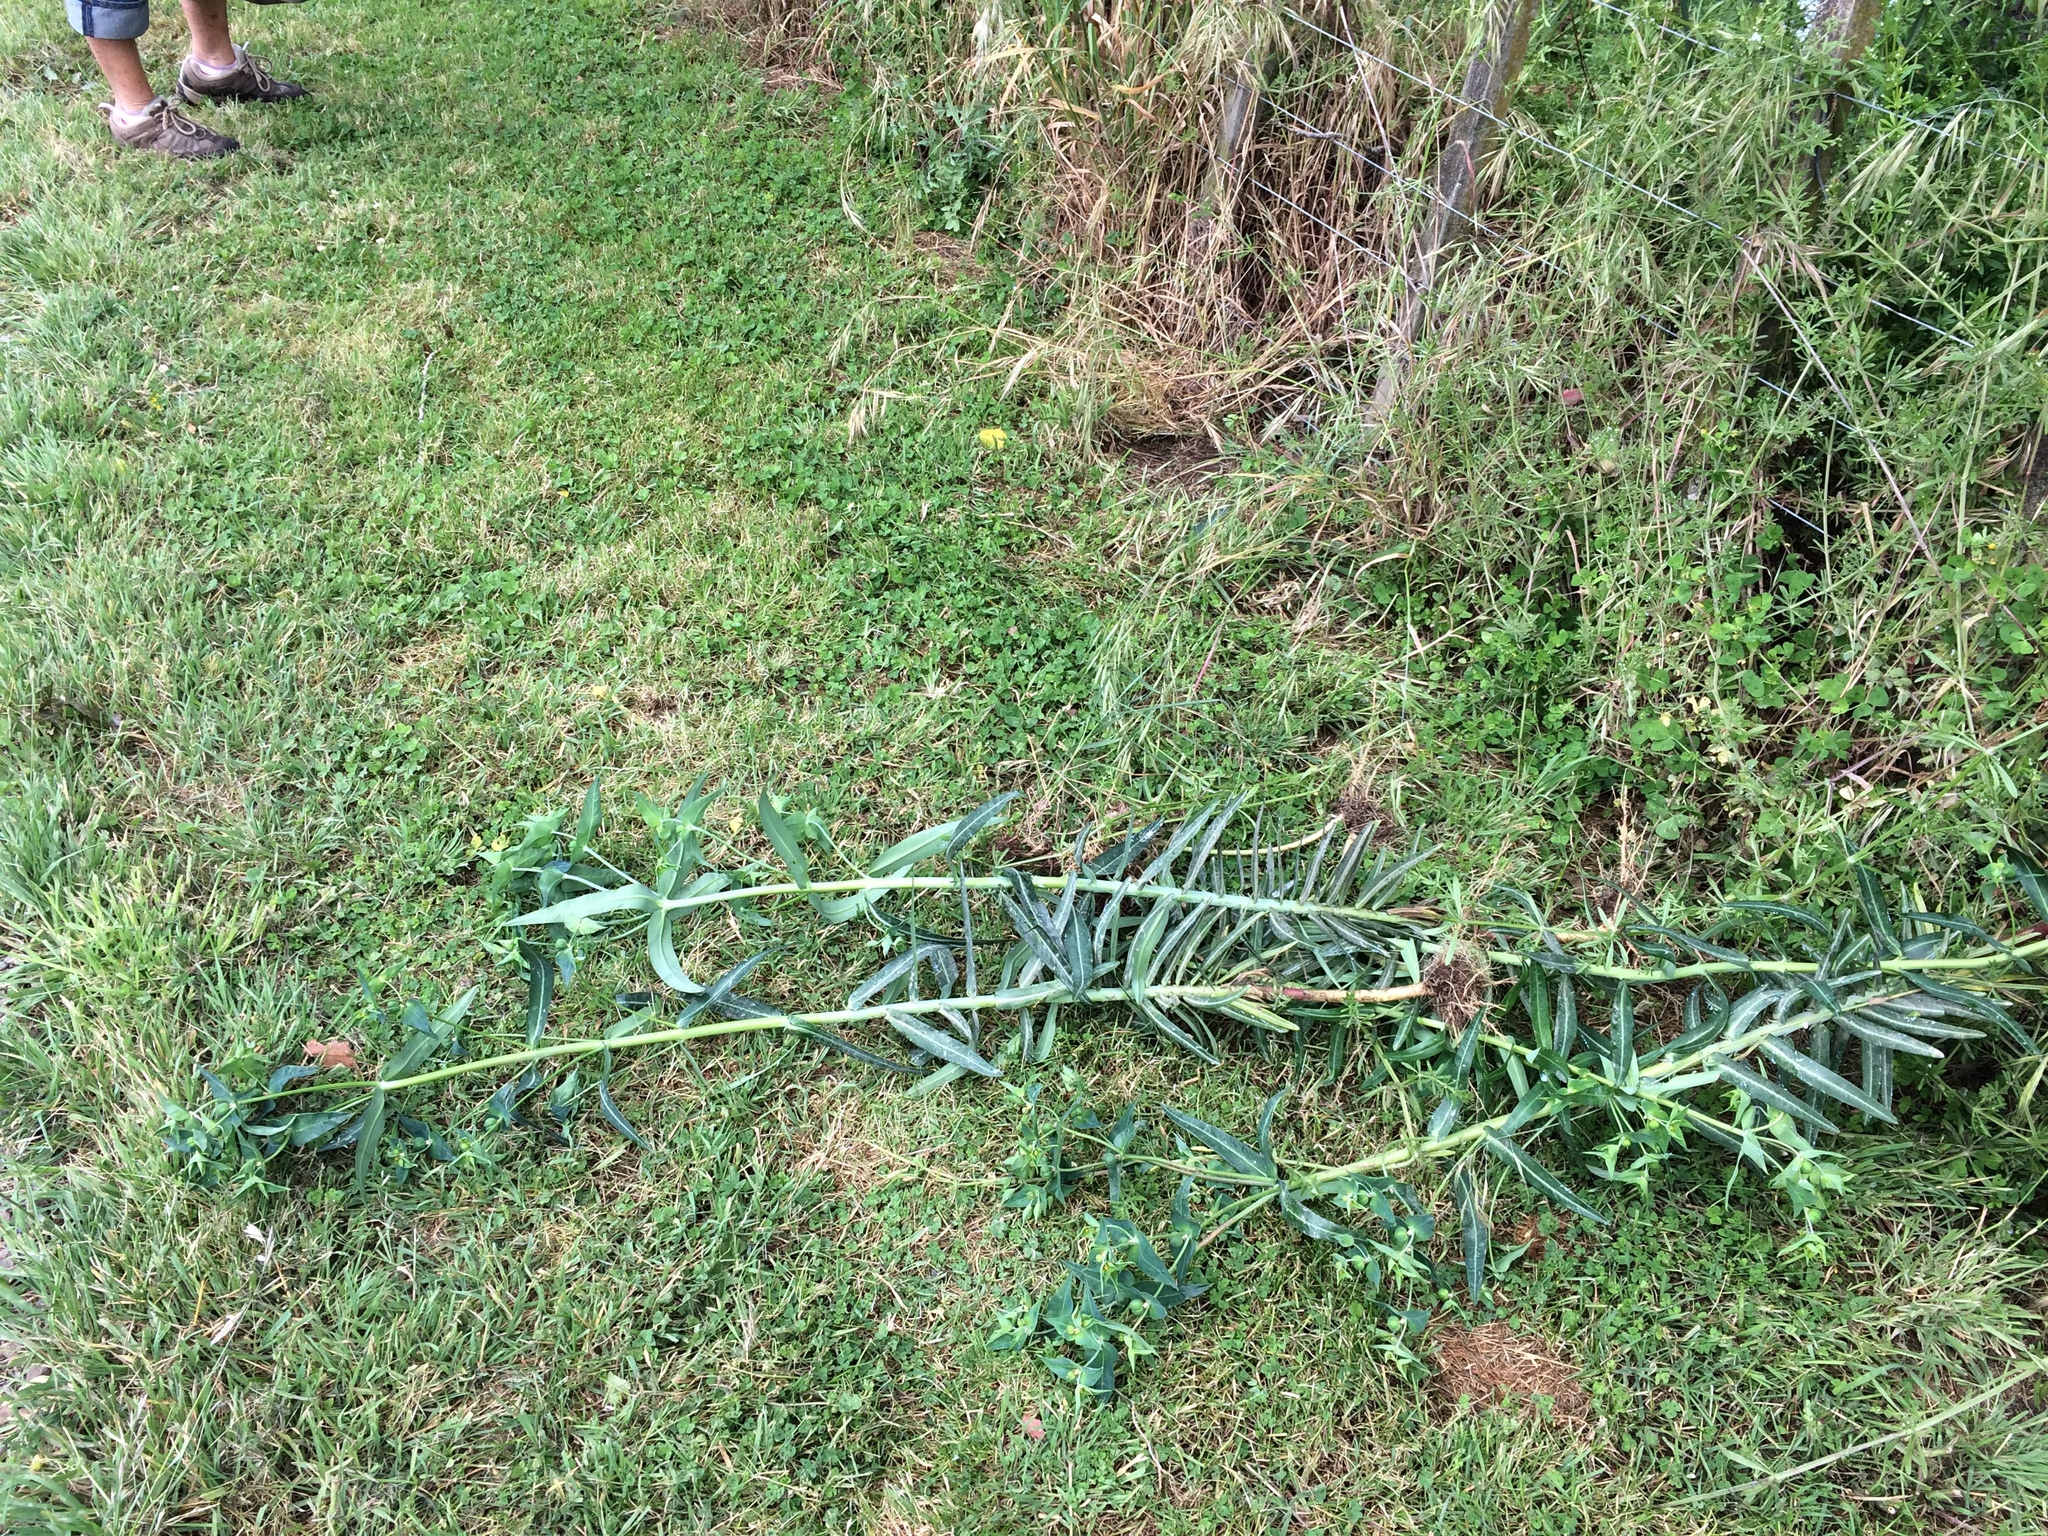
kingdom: Plantae
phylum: Tracheophyta
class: Magnoliopsida
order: Malpighiales
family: Euphorbiaceae
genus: Euphorbia
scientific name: Euphorbia lathyris
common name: Caper spurge
